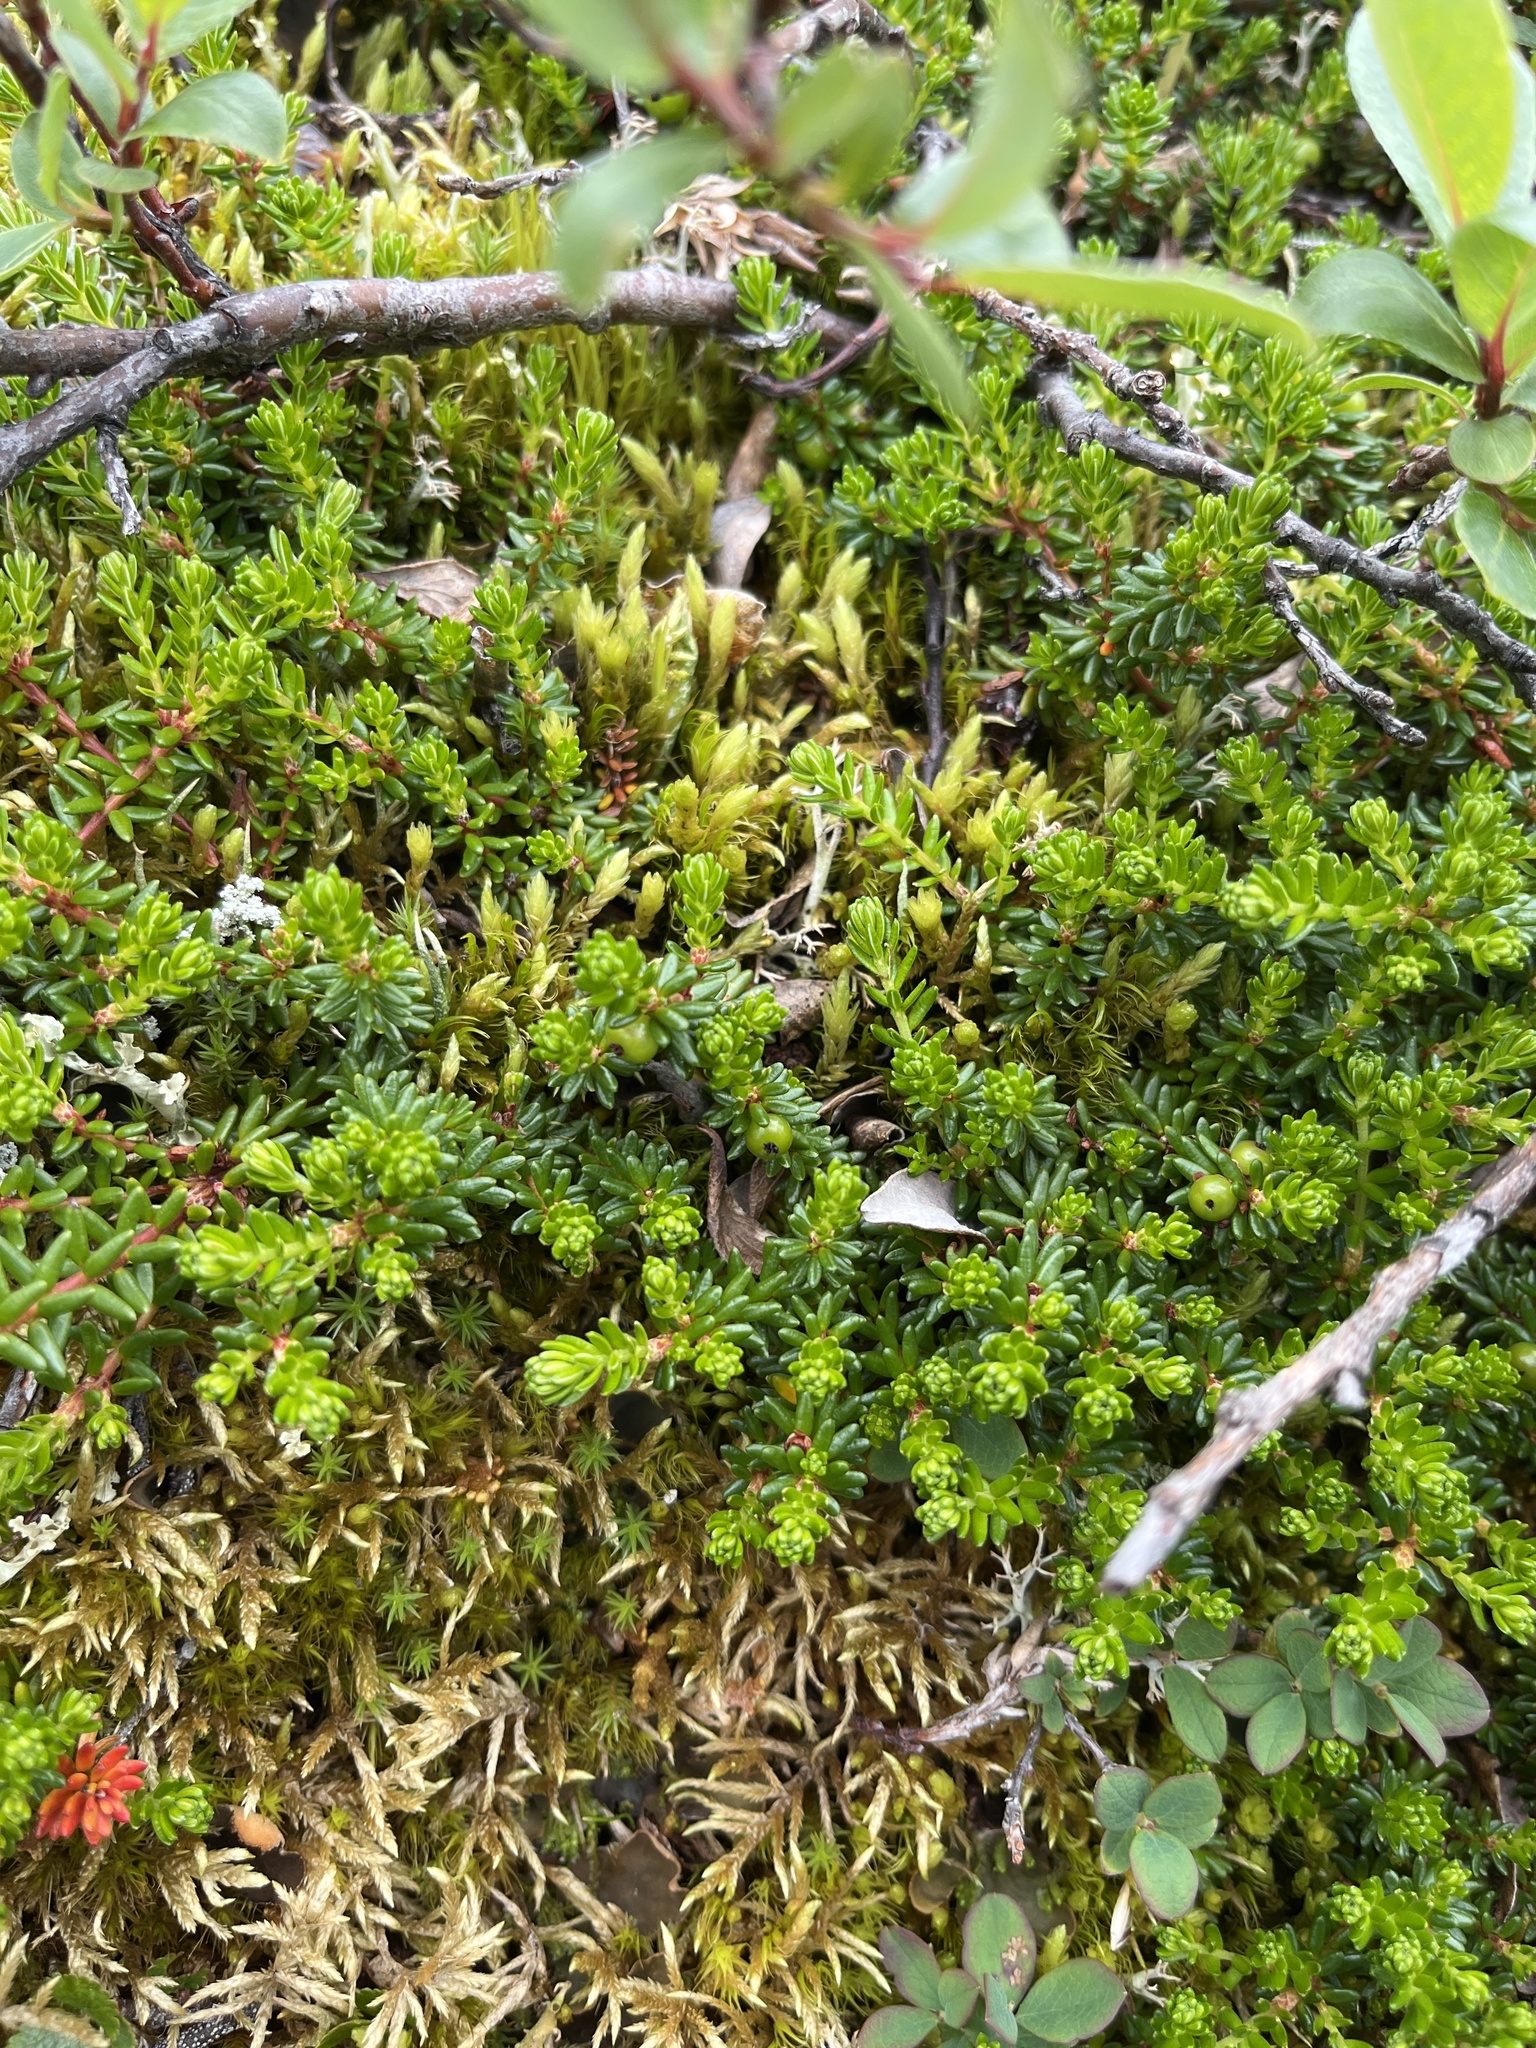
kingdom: Plantae
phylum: Tracheophyta
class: Magnoliopsida
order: Ericales
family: Ericaceae
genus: Empetrum
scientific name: Empetrum hermaphroditum
